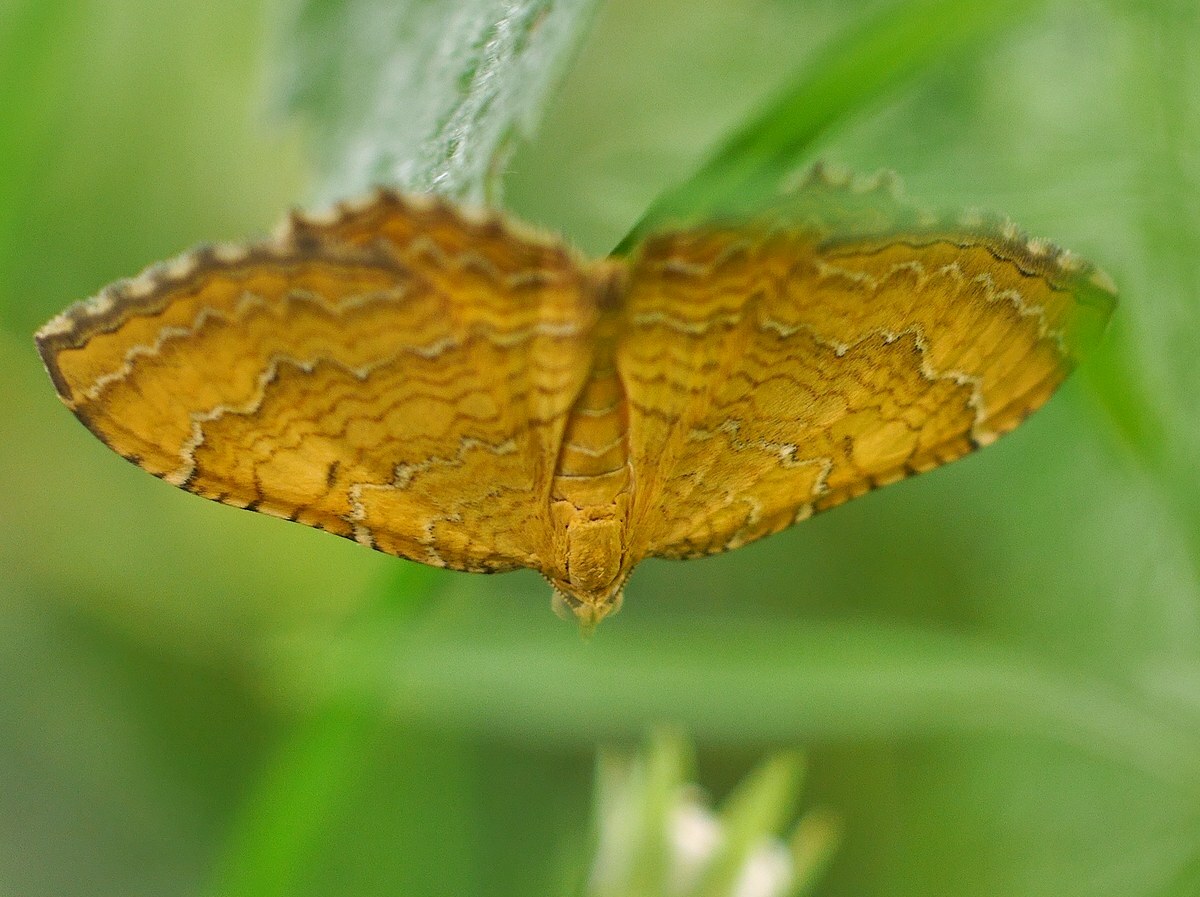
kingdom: Animalia
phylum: Arthropoda
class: Insecta
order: Lepidoptera
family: Geometridae
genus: Camptogramma
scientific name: Camptogramma bilineata
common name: Yellow shell
